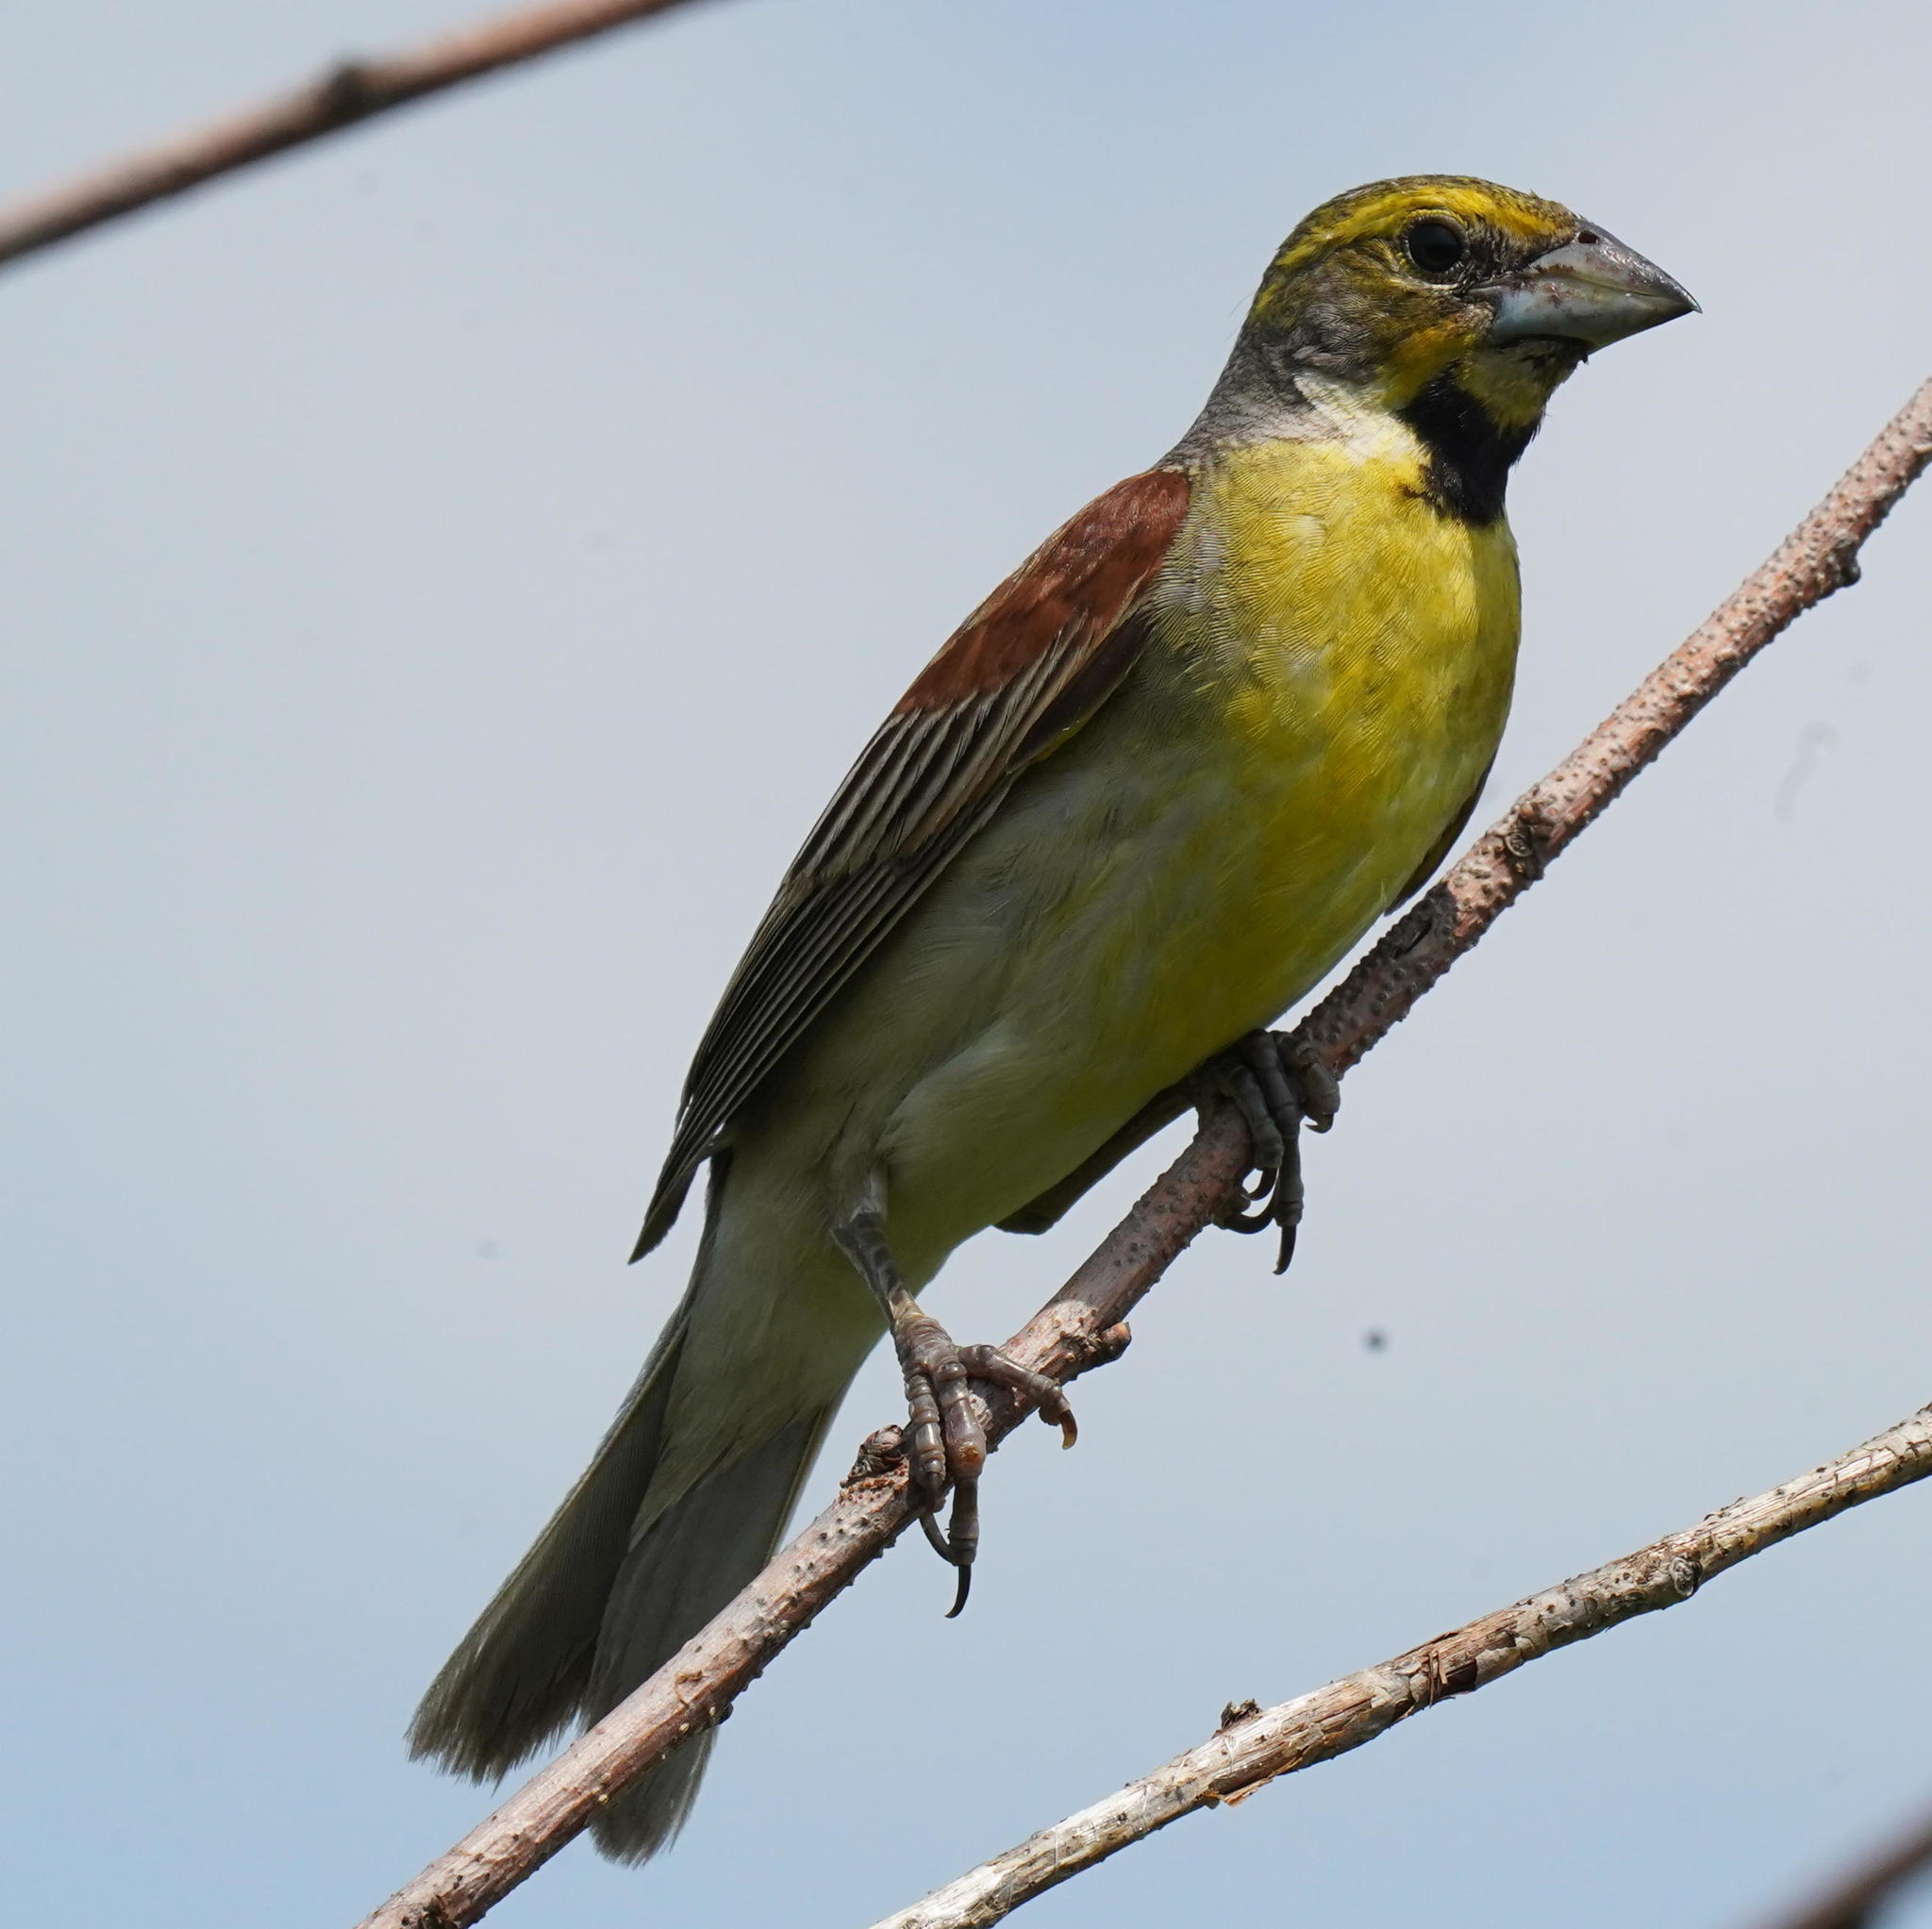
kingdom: Animalia
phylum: Chordata
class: Aves
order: Passeriformes
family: Cardinalidae
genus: Spiza
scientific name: Spiza americana
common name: Dickcissel
